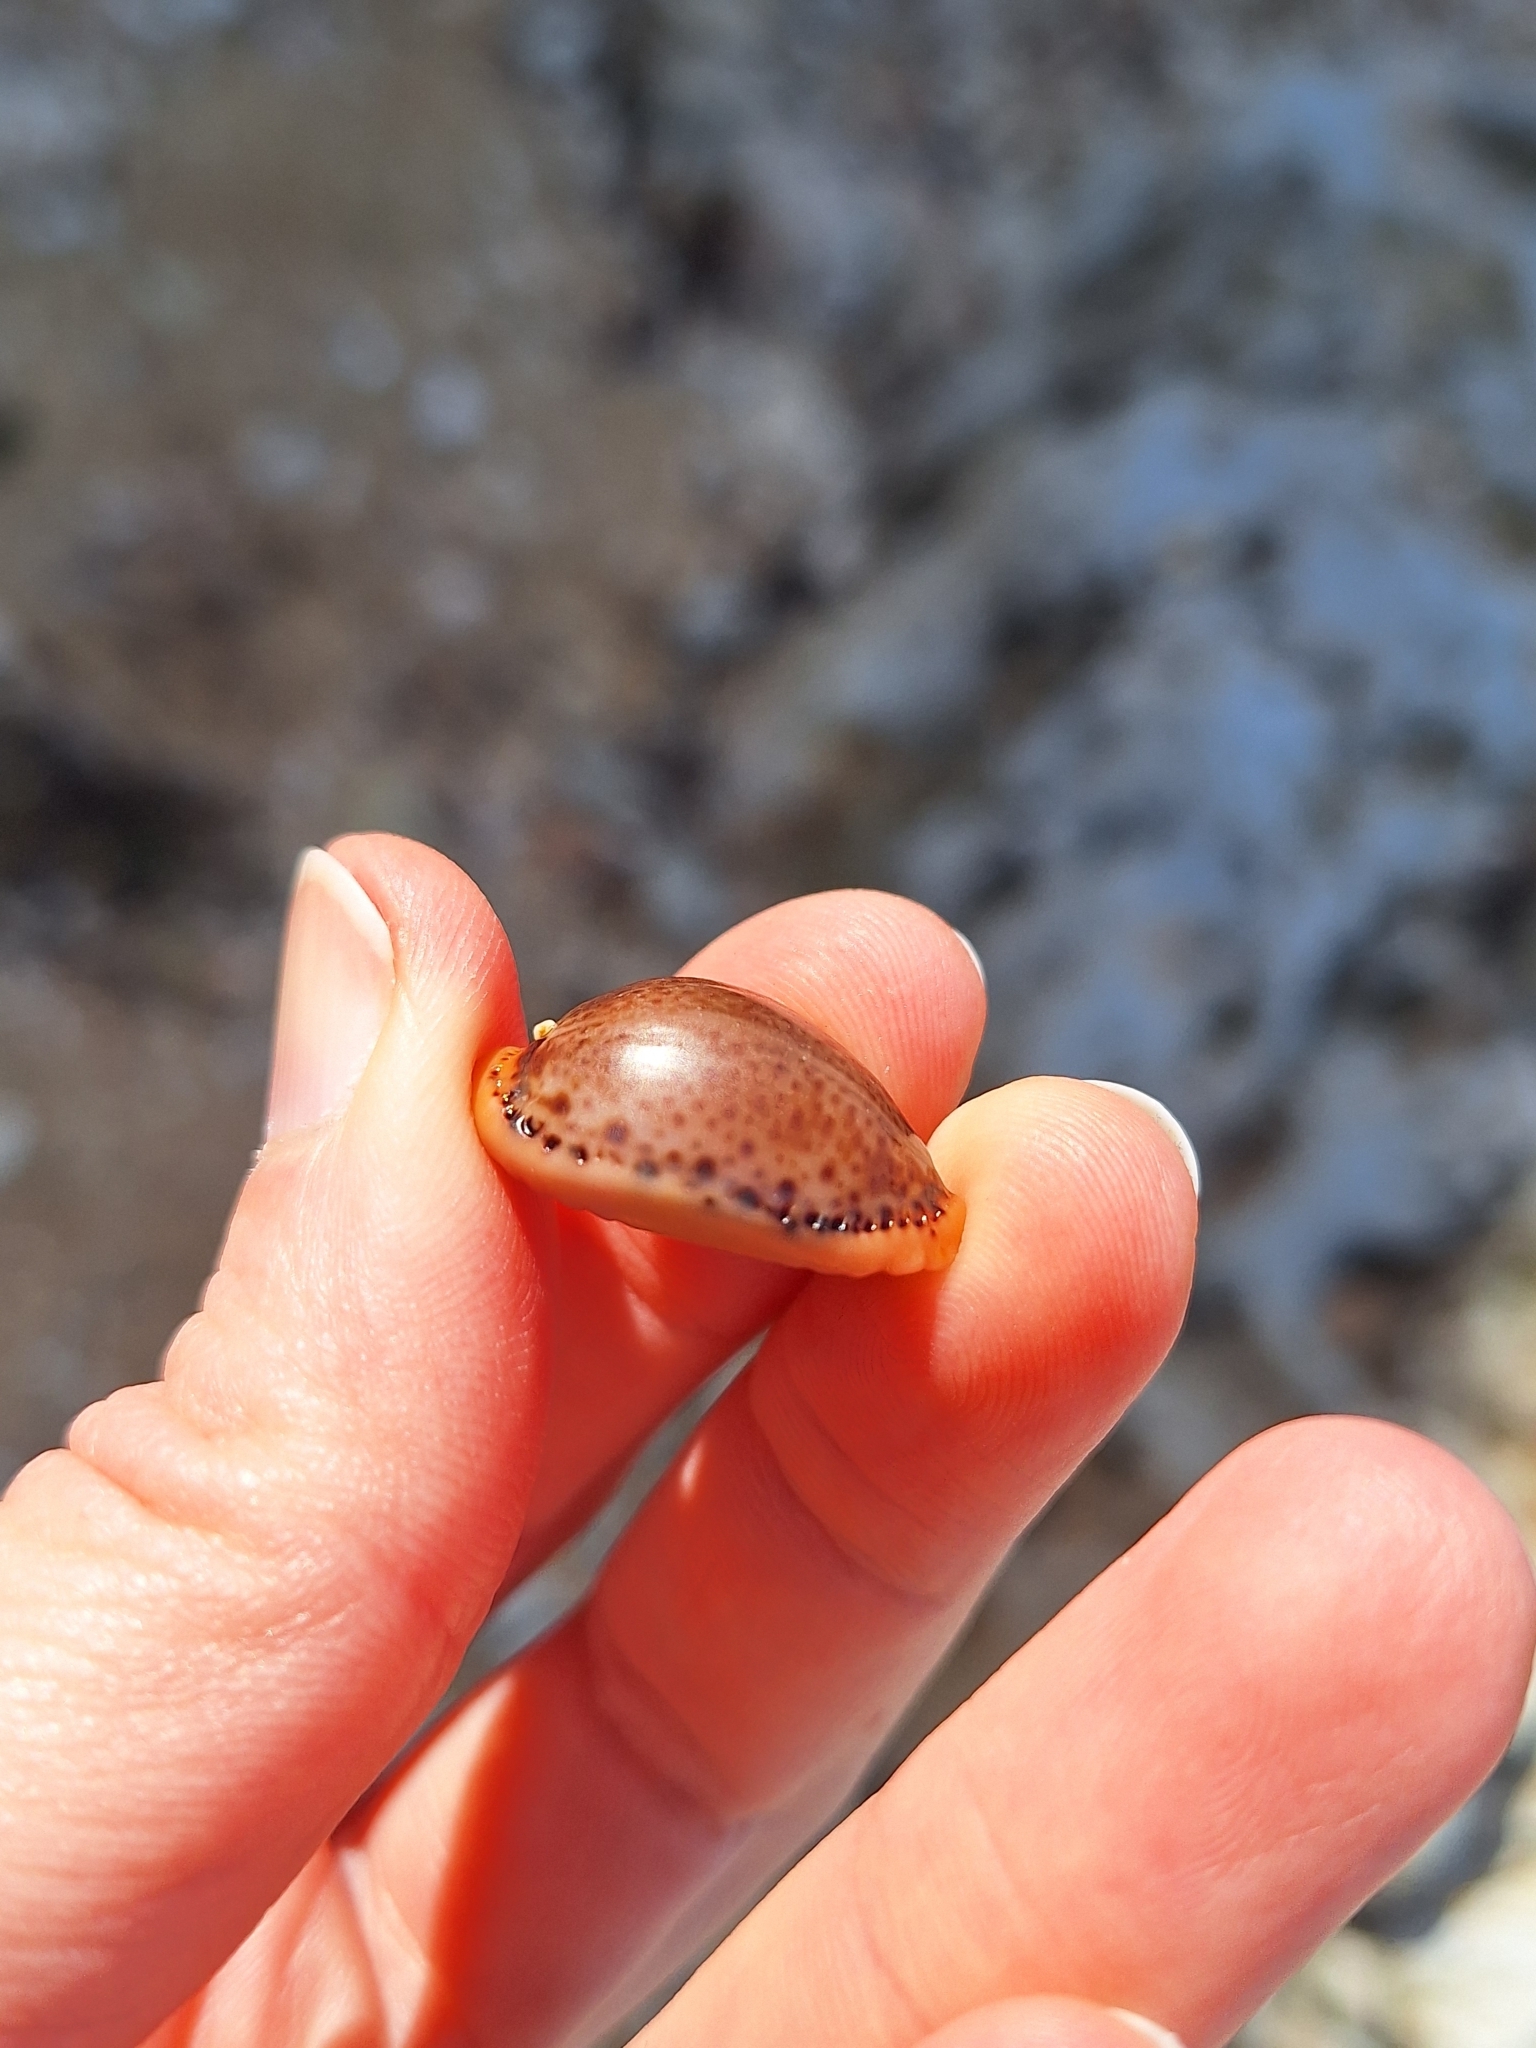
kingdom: Animalia
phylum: Mollusca
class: Gastropoda
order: Littorinimorpha
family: Cypraeidae
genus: Naria
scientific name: Naria spurca
